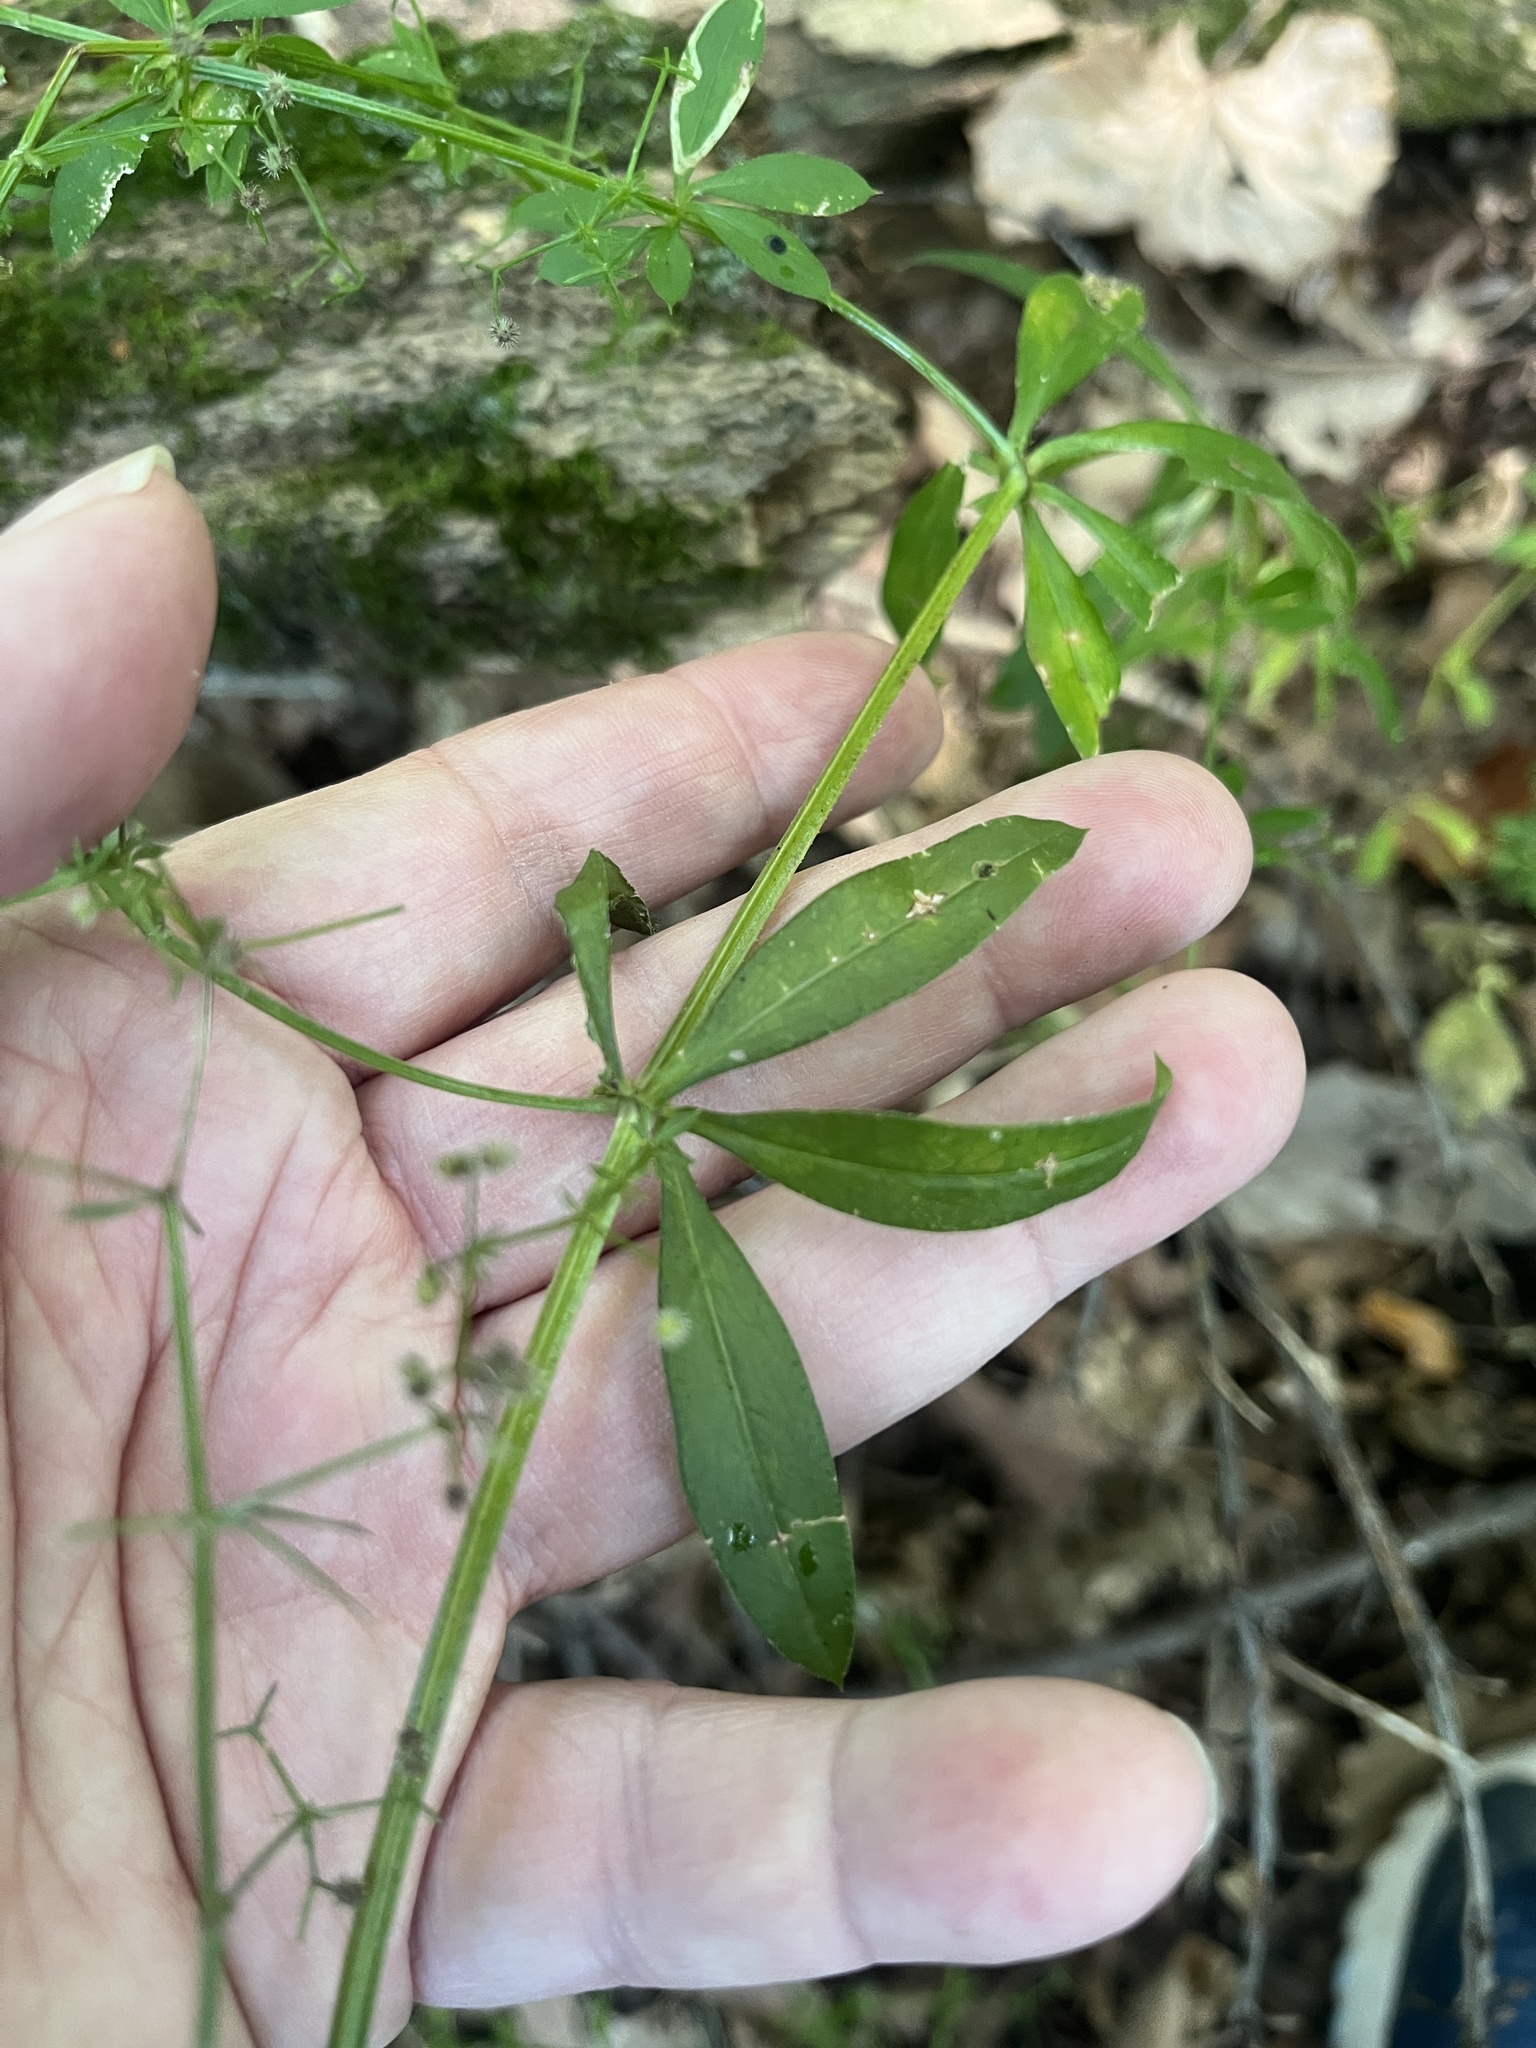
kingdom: Plantae
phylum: Tracheophyta
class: Magnoliopsida
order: Gentianales
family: Rubiaceae
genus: Galium
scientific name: Galium triflorum
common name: Fragrant bedstraw
